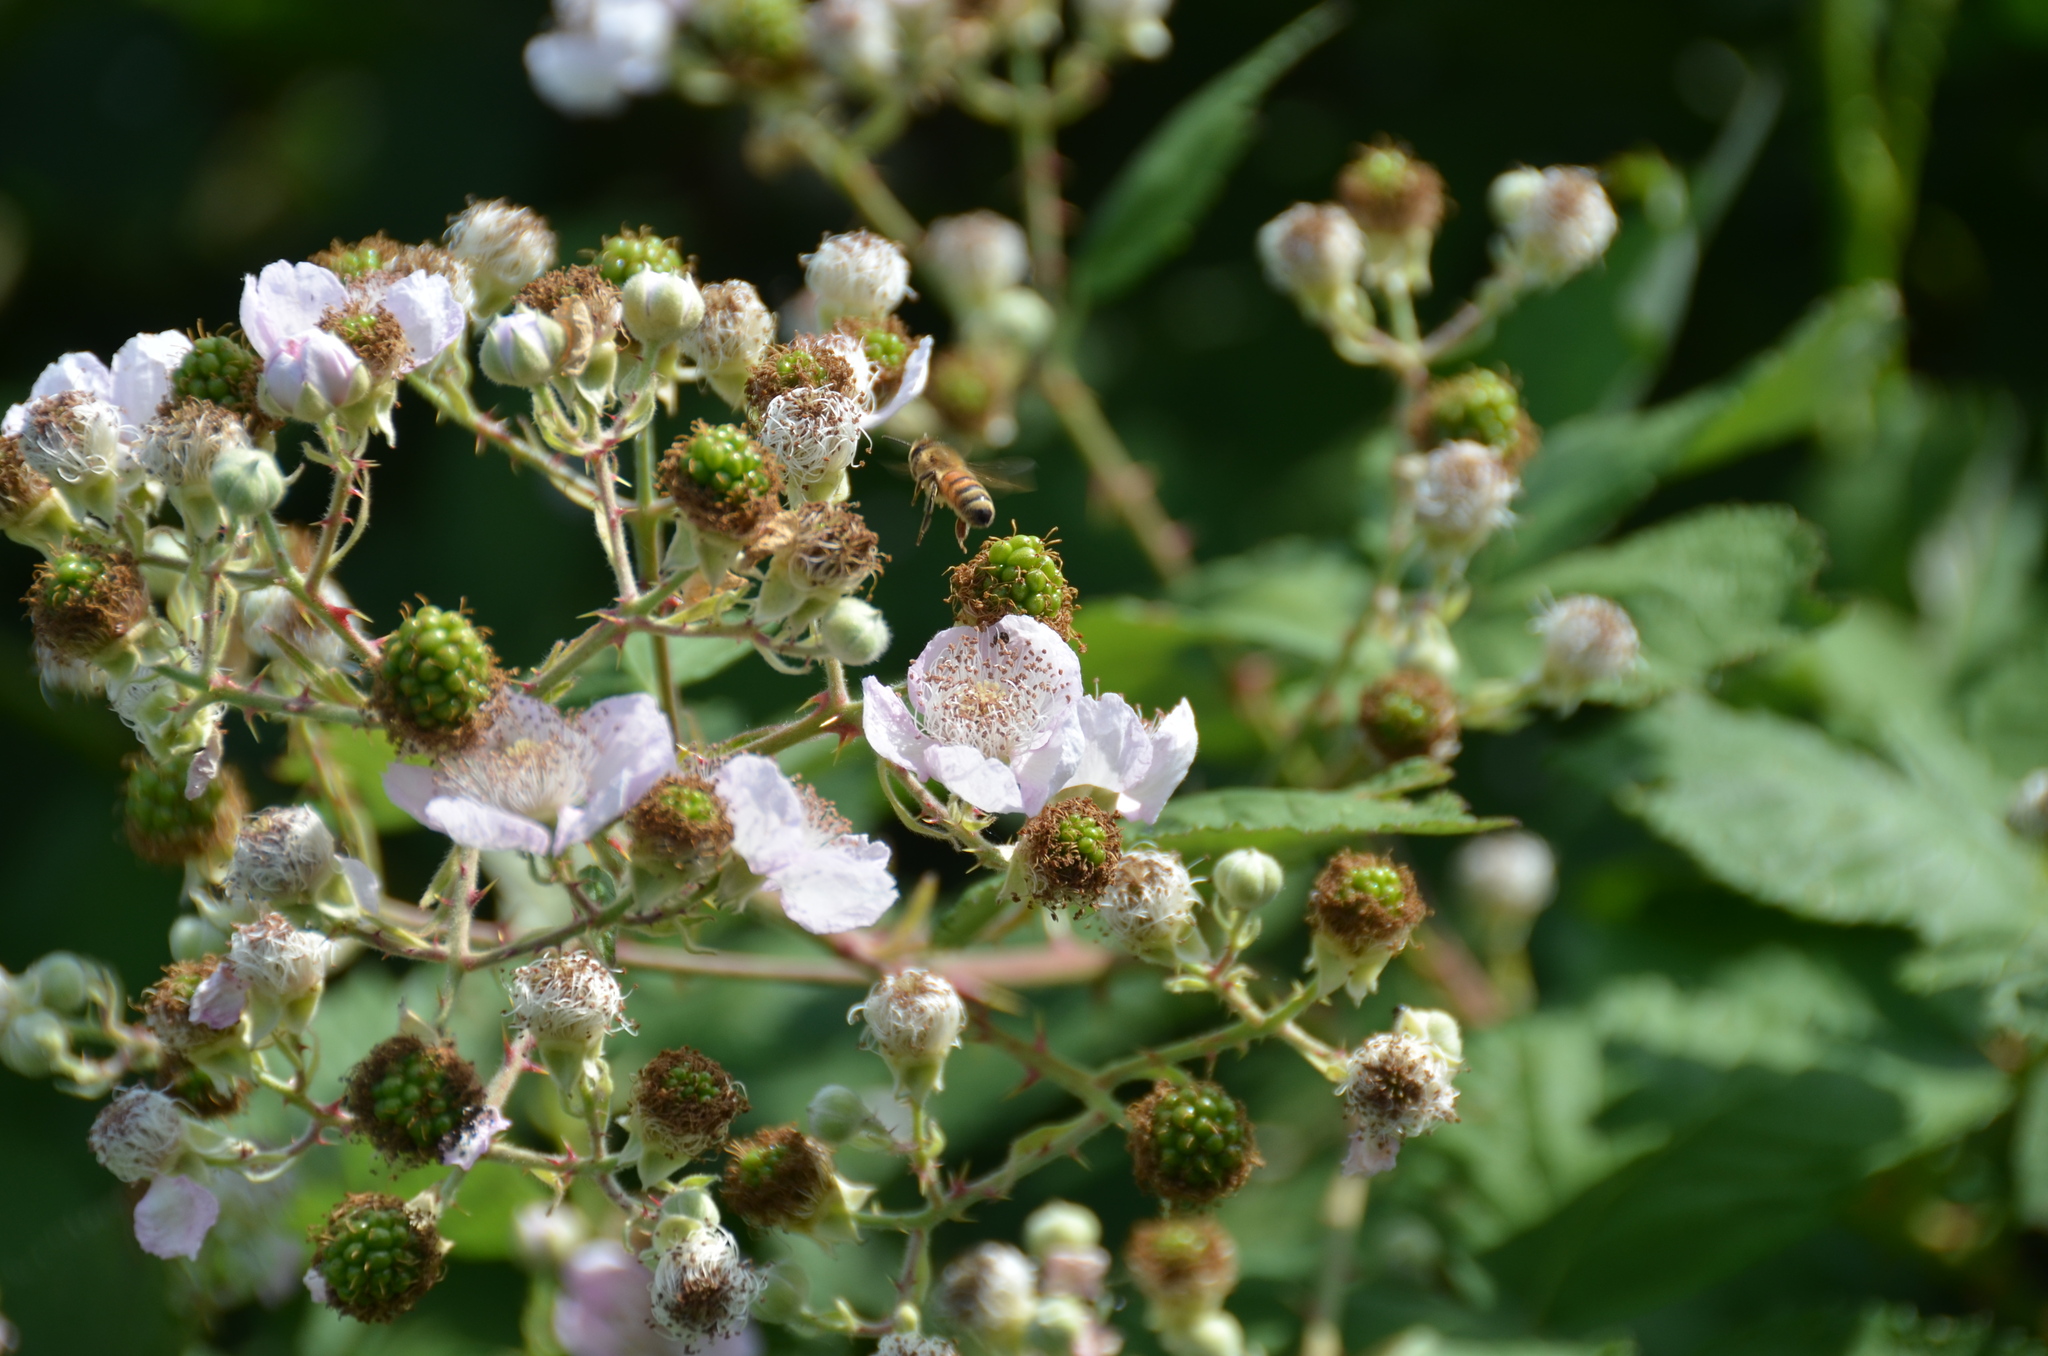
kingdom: Animalia
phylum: Arthropoda
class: Insecta
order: Hymenoptera
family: Apidae
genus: Apis
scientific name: Apis mellifera
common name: Honey bee
